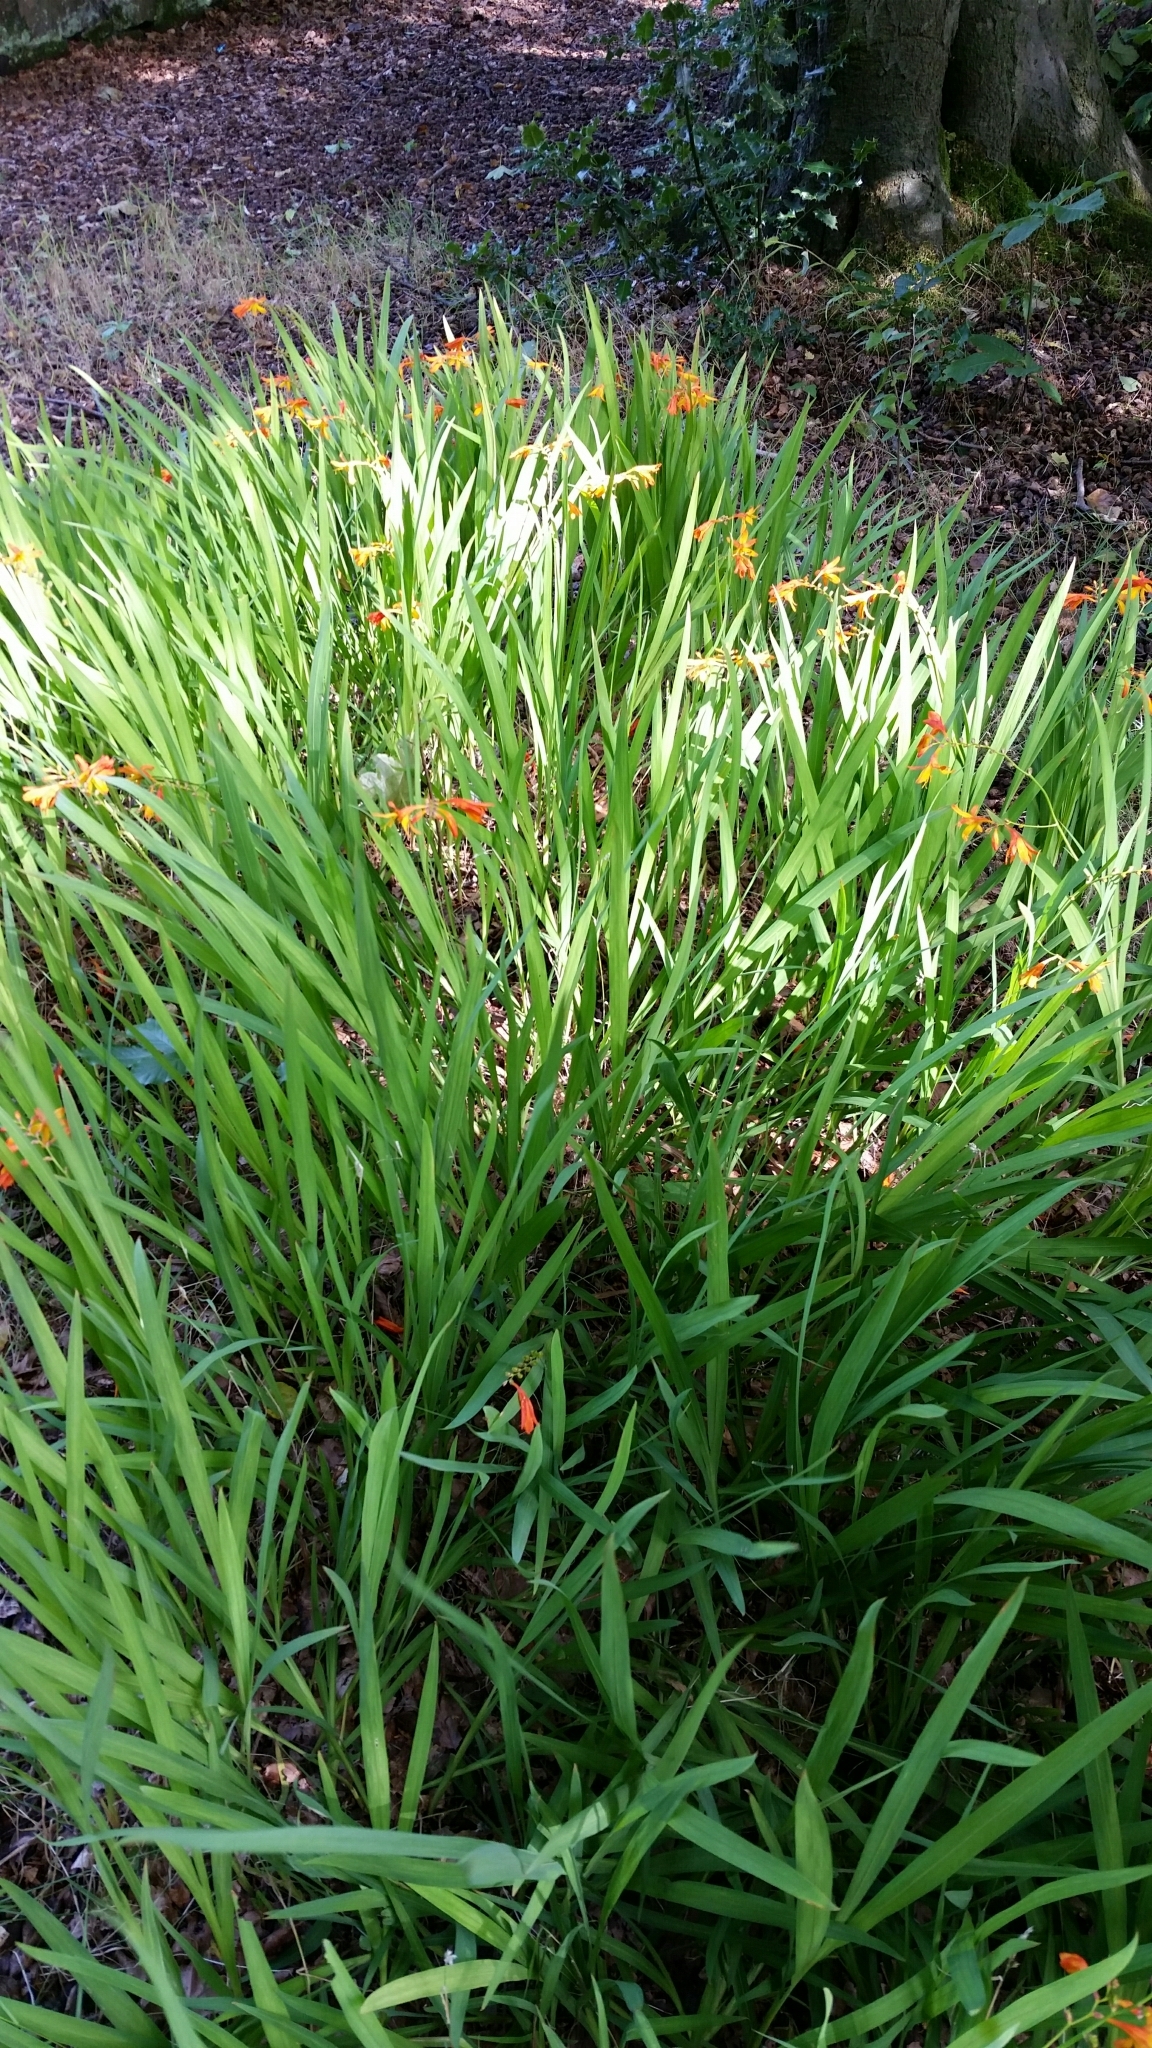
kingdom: Plantae
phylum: Tracheophyta
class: Liliopsida
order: Asparagales
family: Iridaceae
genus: Crocosmia
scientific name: Crocosmia crocosmiiflora
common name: Montbretia
